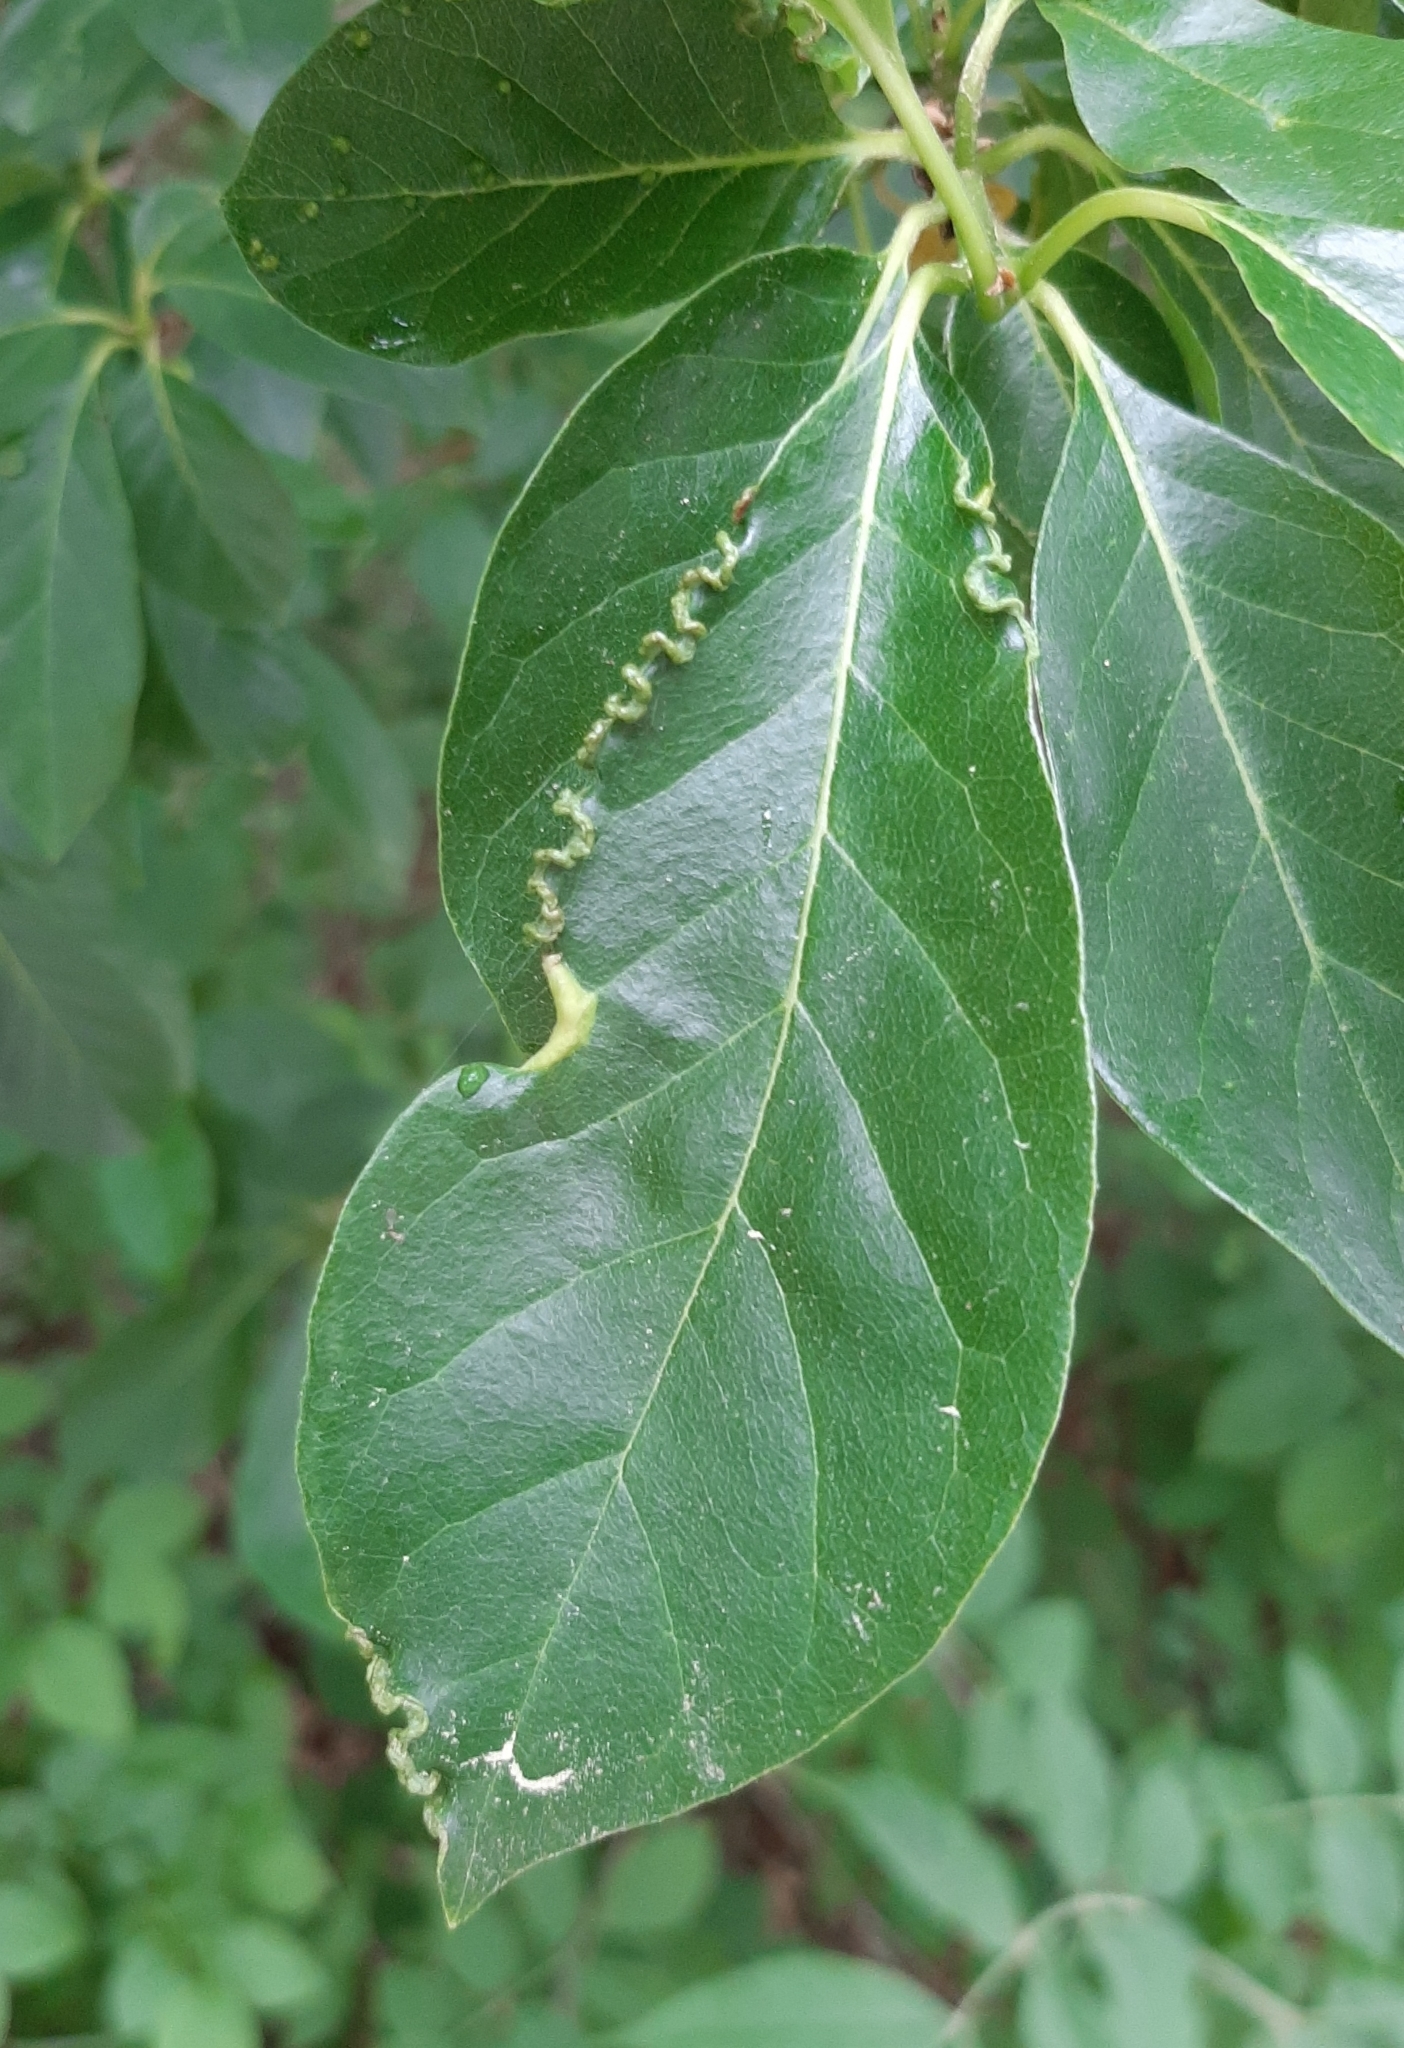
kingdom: Animalia
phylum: Arthropoda
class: Insecta
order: Hemiptera
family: Phylloxeridae
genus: Phylloxerina
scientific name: Phylloxerina nyssae
